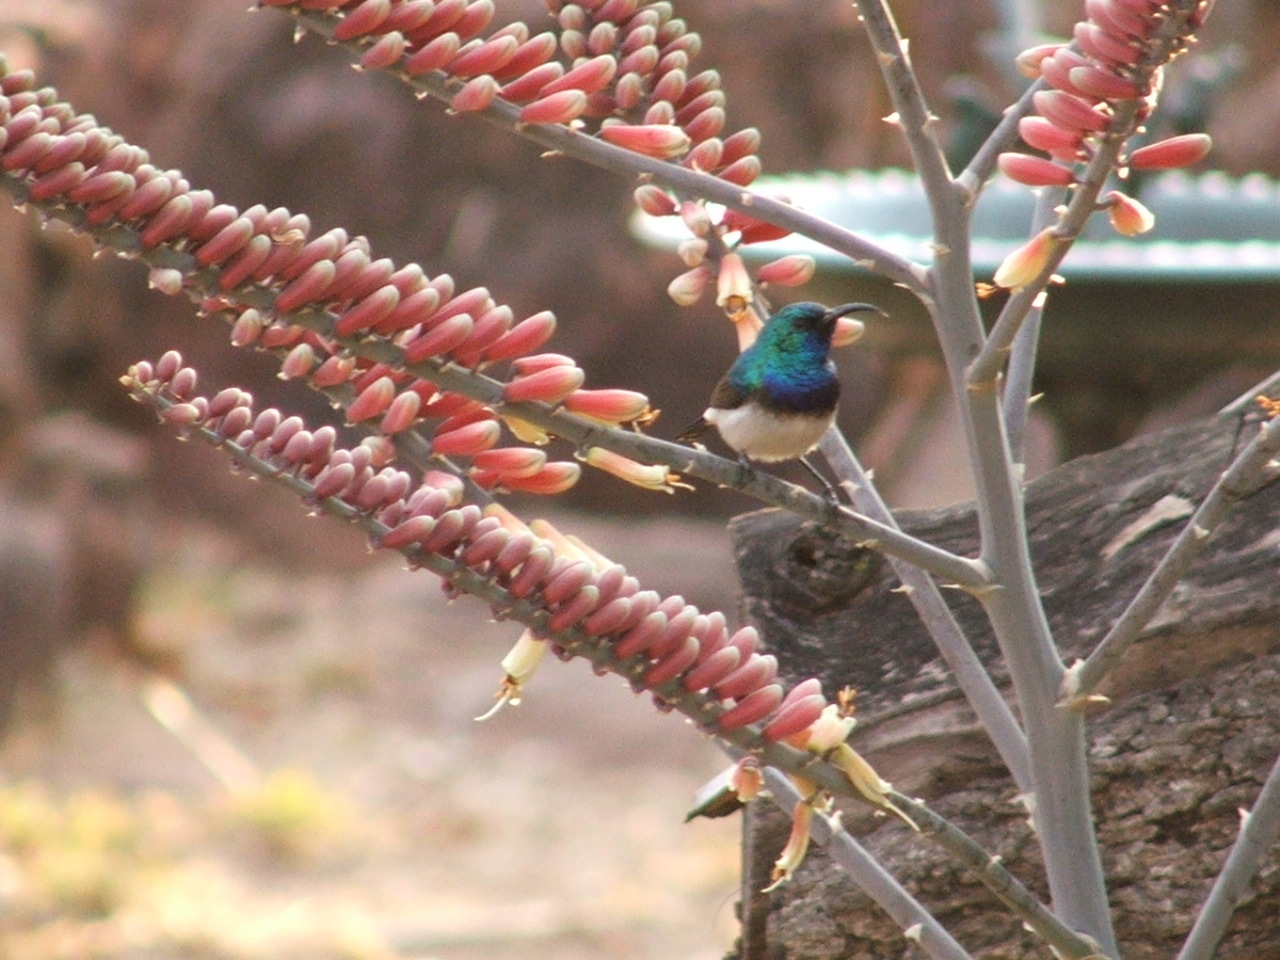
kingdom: Animalia
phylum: Chordata
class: Aves
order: Passeriformes
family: Nectariniidae
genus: Cinnyris
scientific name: Cinnyris talatala
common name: White-bellied sunbird
